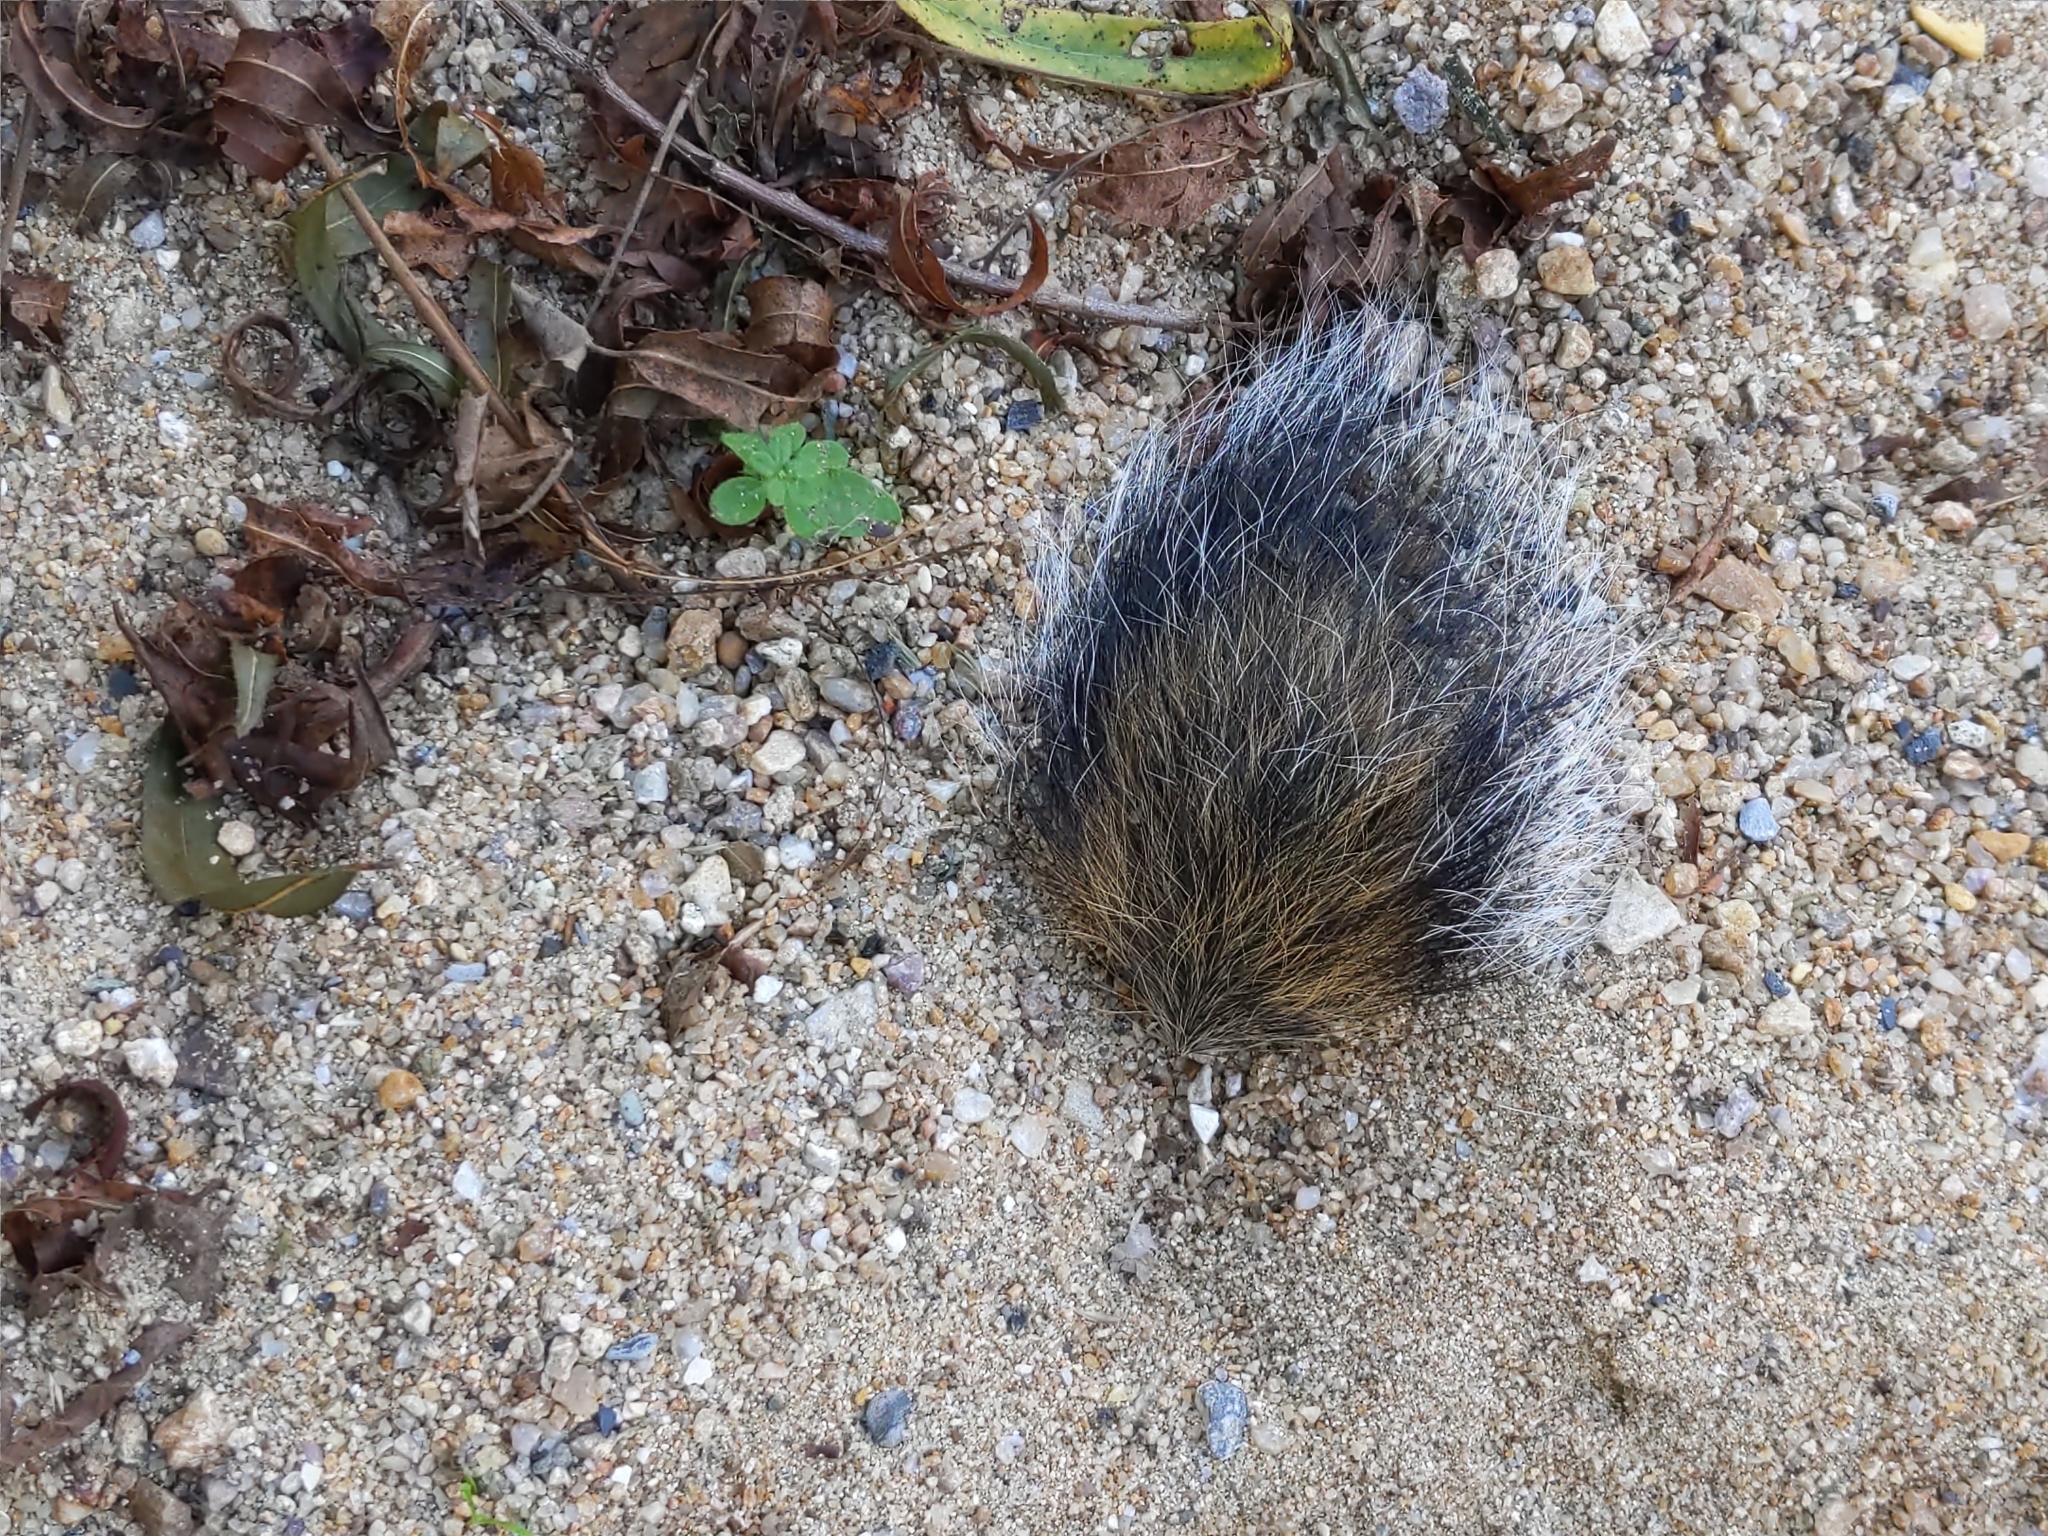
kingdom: Animalia
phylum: Chordata
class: Mammalia
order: Rodentia
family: Sciuridae
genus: Sciurus
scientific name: Sciurus carolinensis
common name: Eastern gray squirrel
